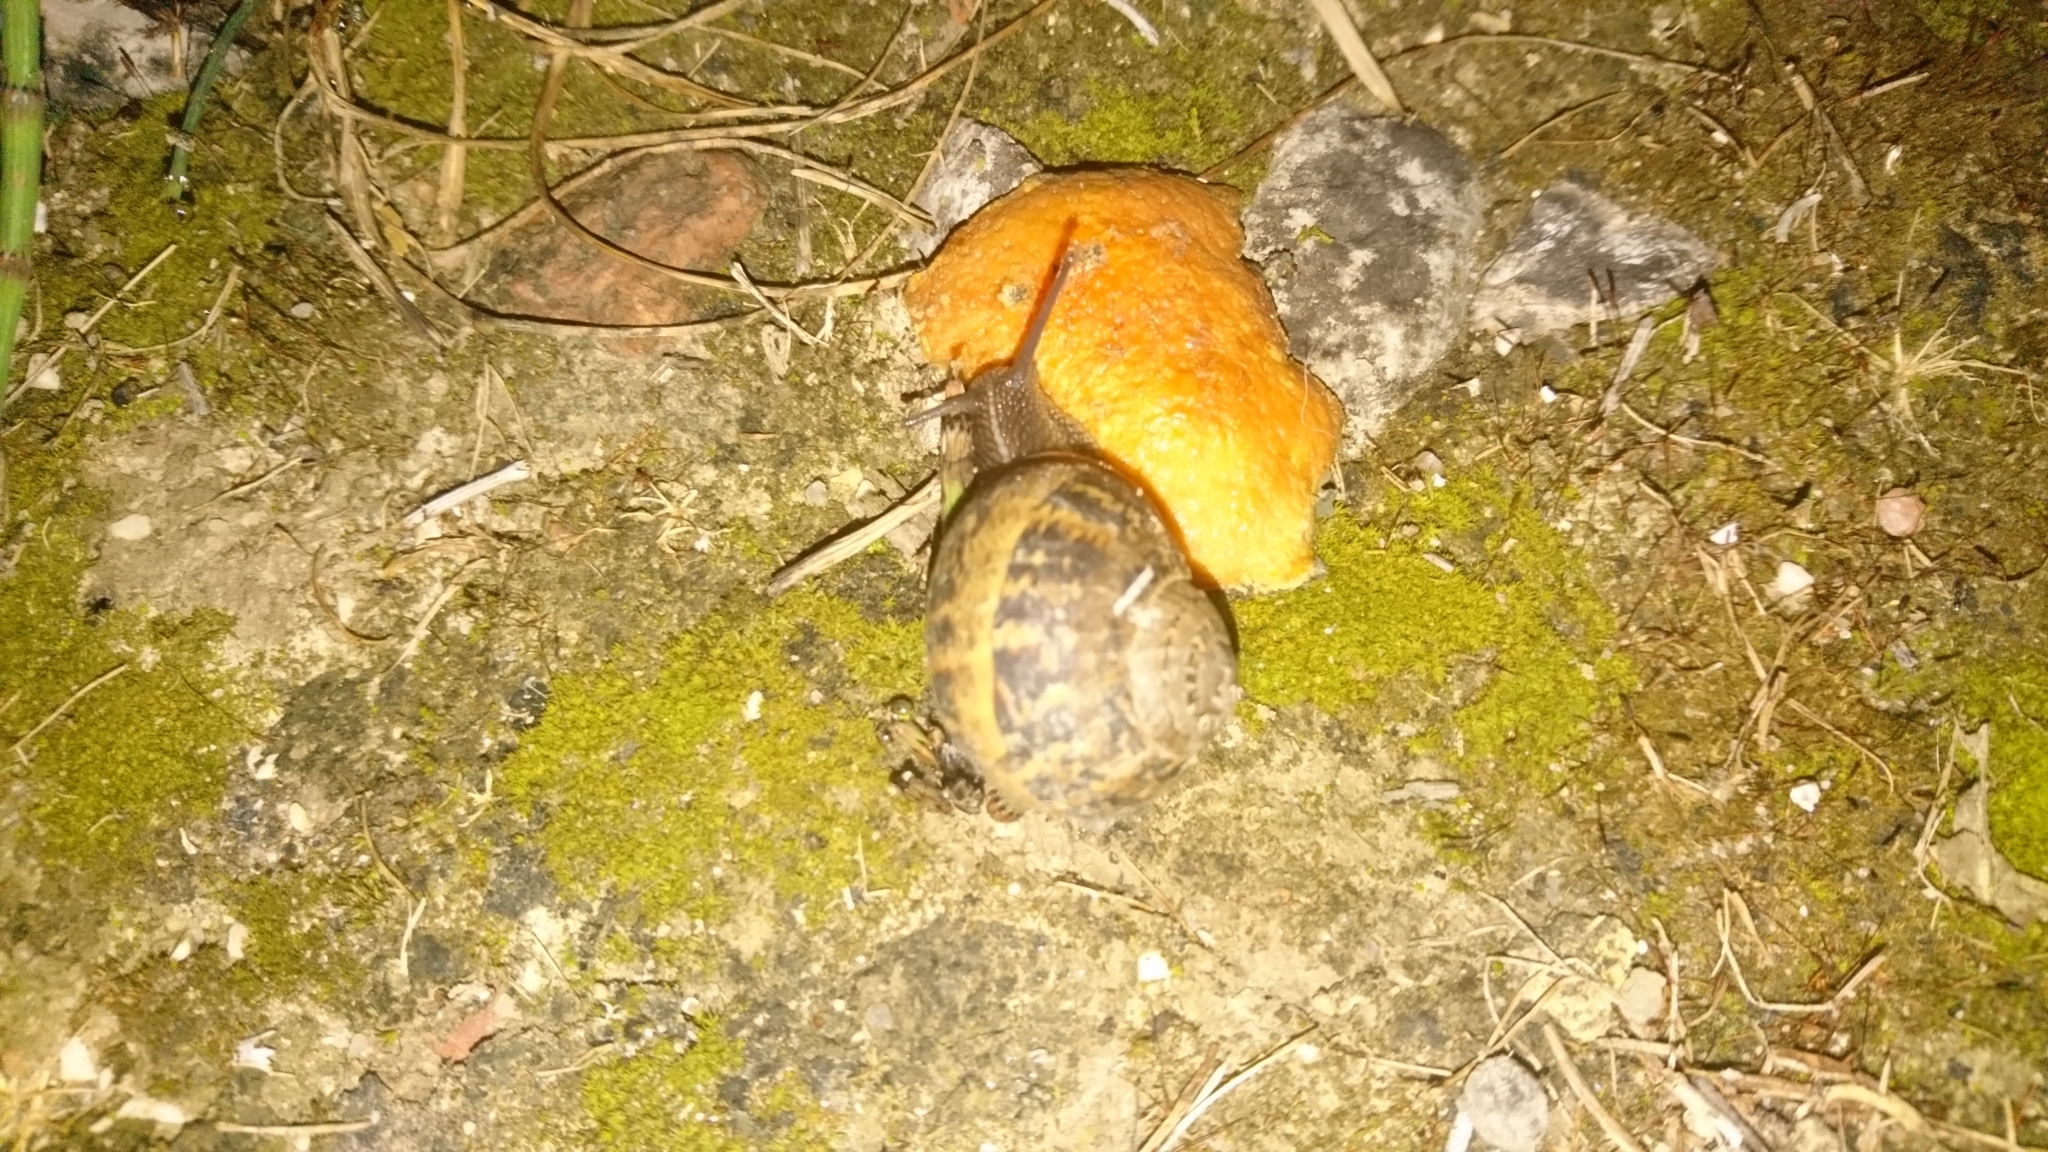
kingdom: Animalia
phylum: Mollusca
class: Gastropoda
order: Stylommatophora
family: Helicidae
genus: Cornu
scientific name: Cornu aspersum
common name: Brown garden snail
